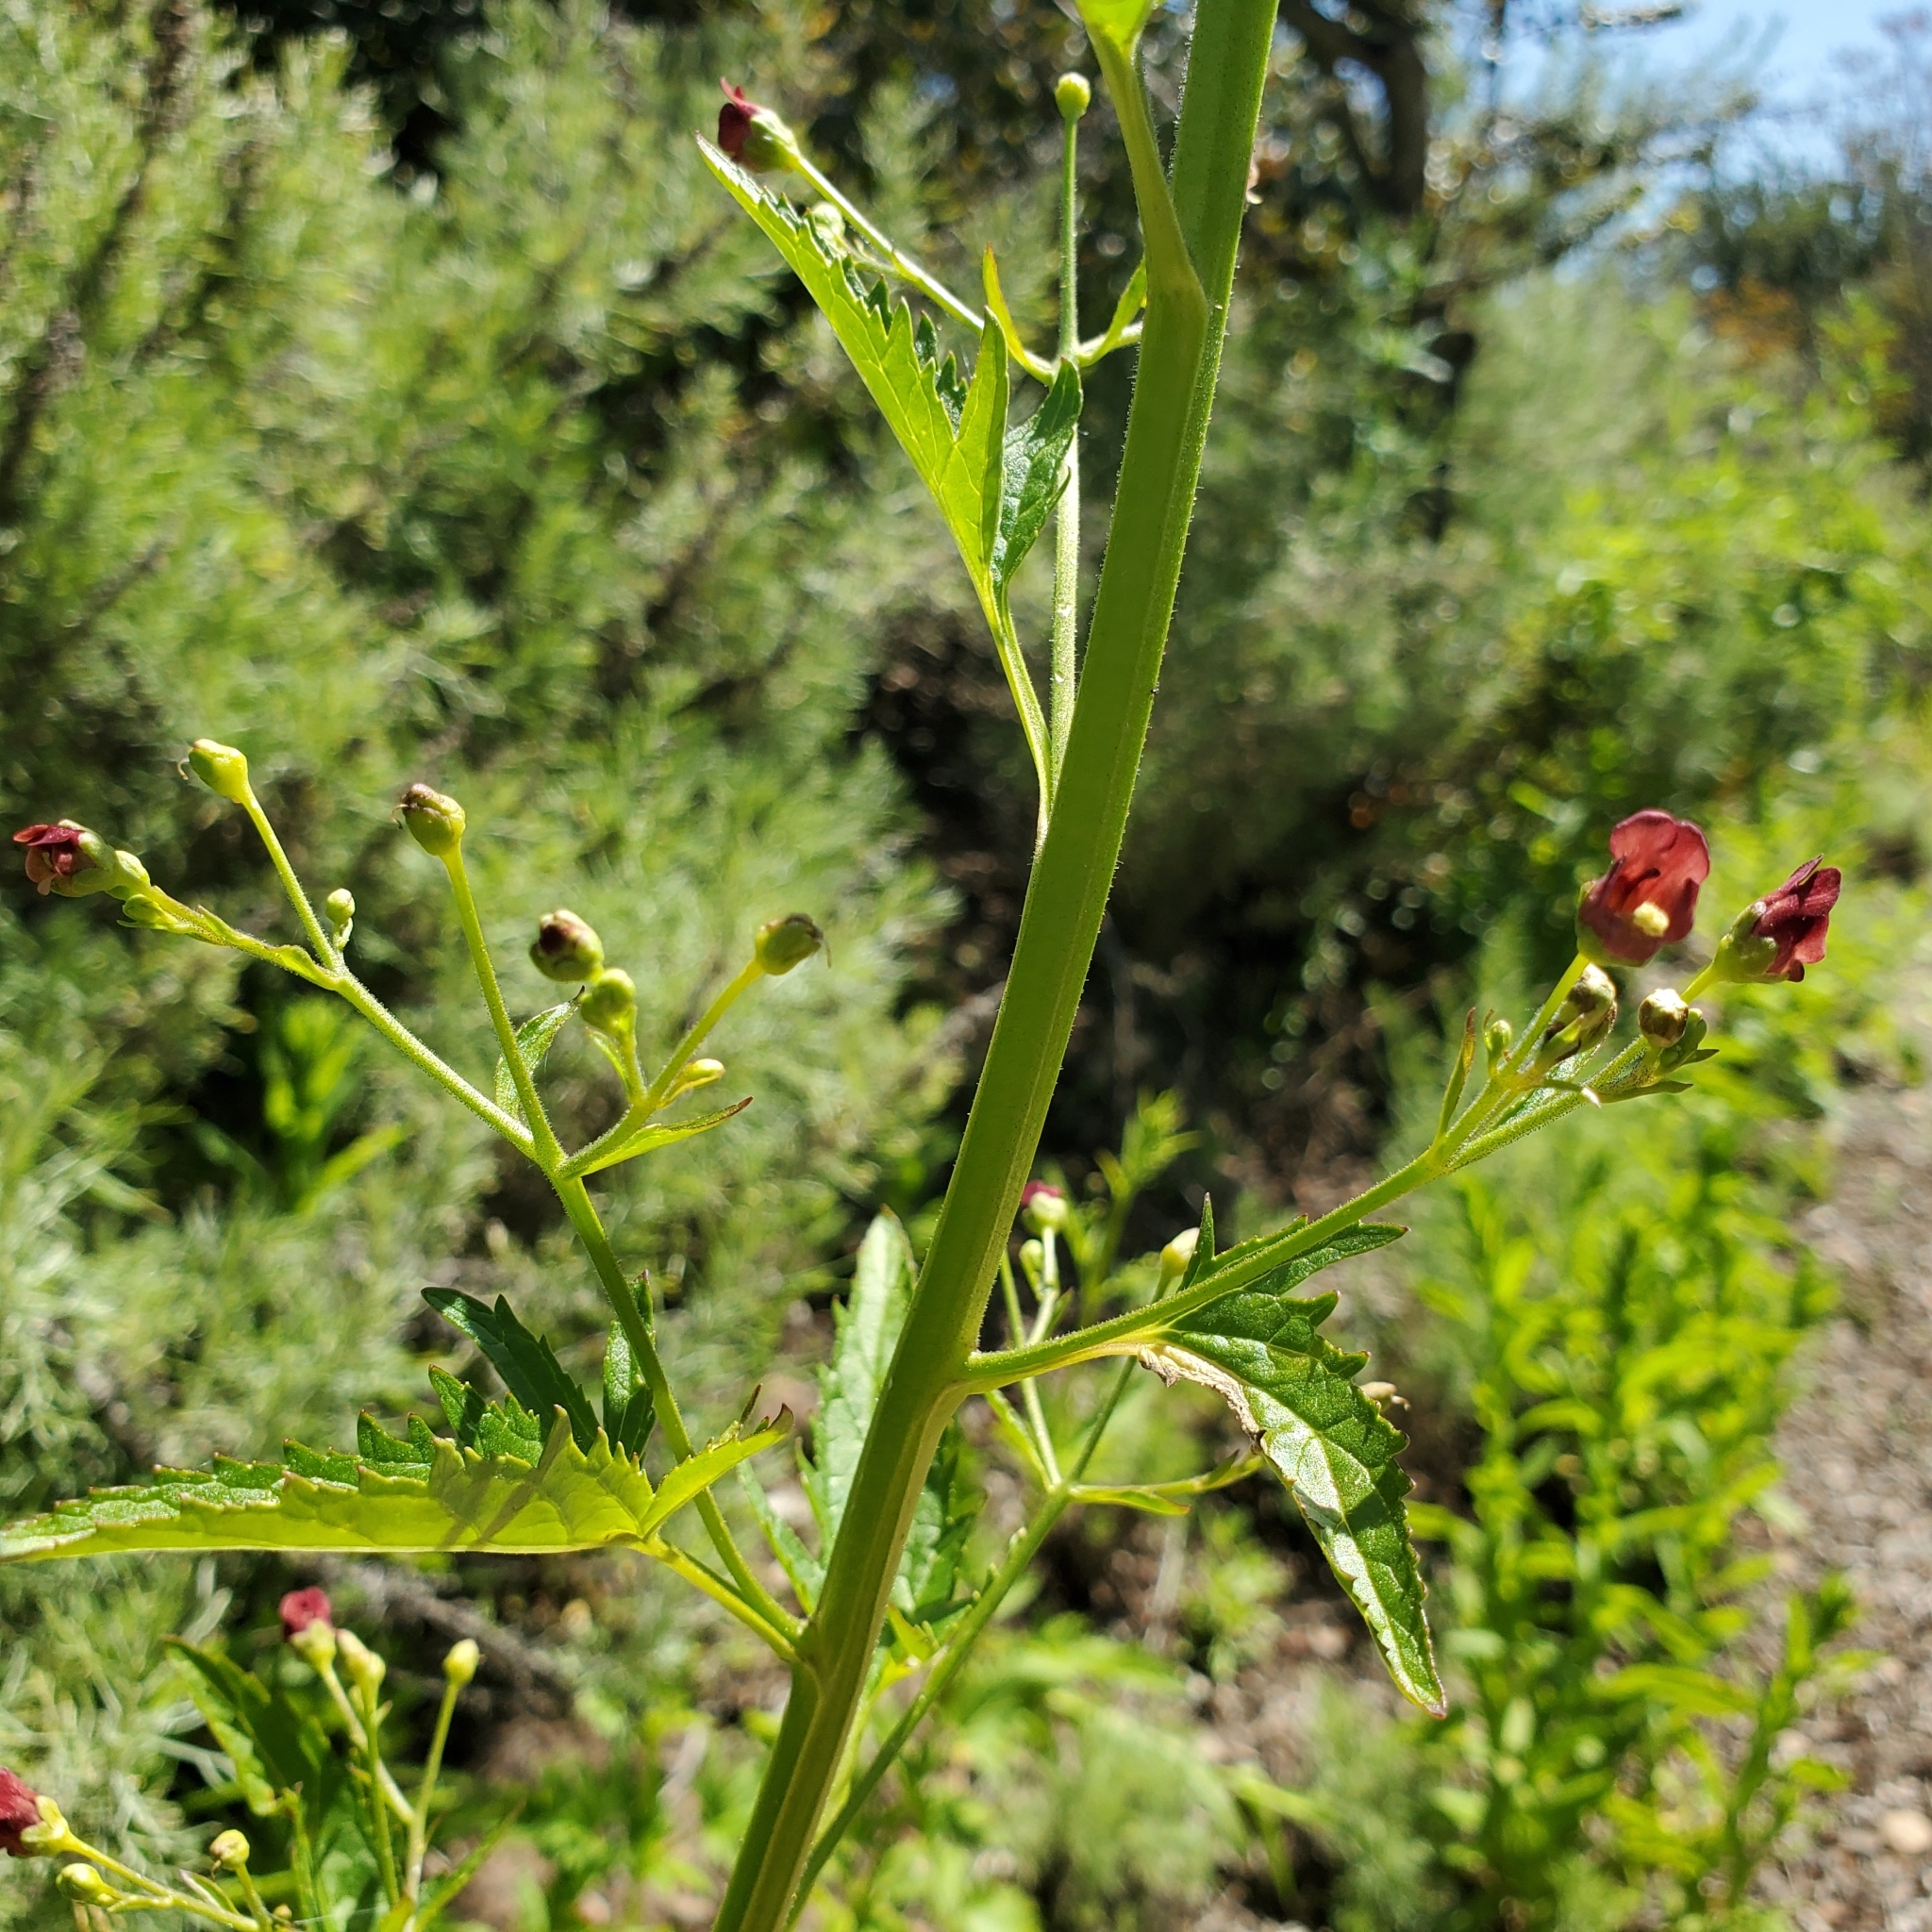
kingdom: Plantae
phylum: Tracheophyta
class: Magnoliopsida
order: Lamiales
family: Scrophulariaceae
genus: Scrophularia
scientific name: Scrophularia californica
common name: California figwort
